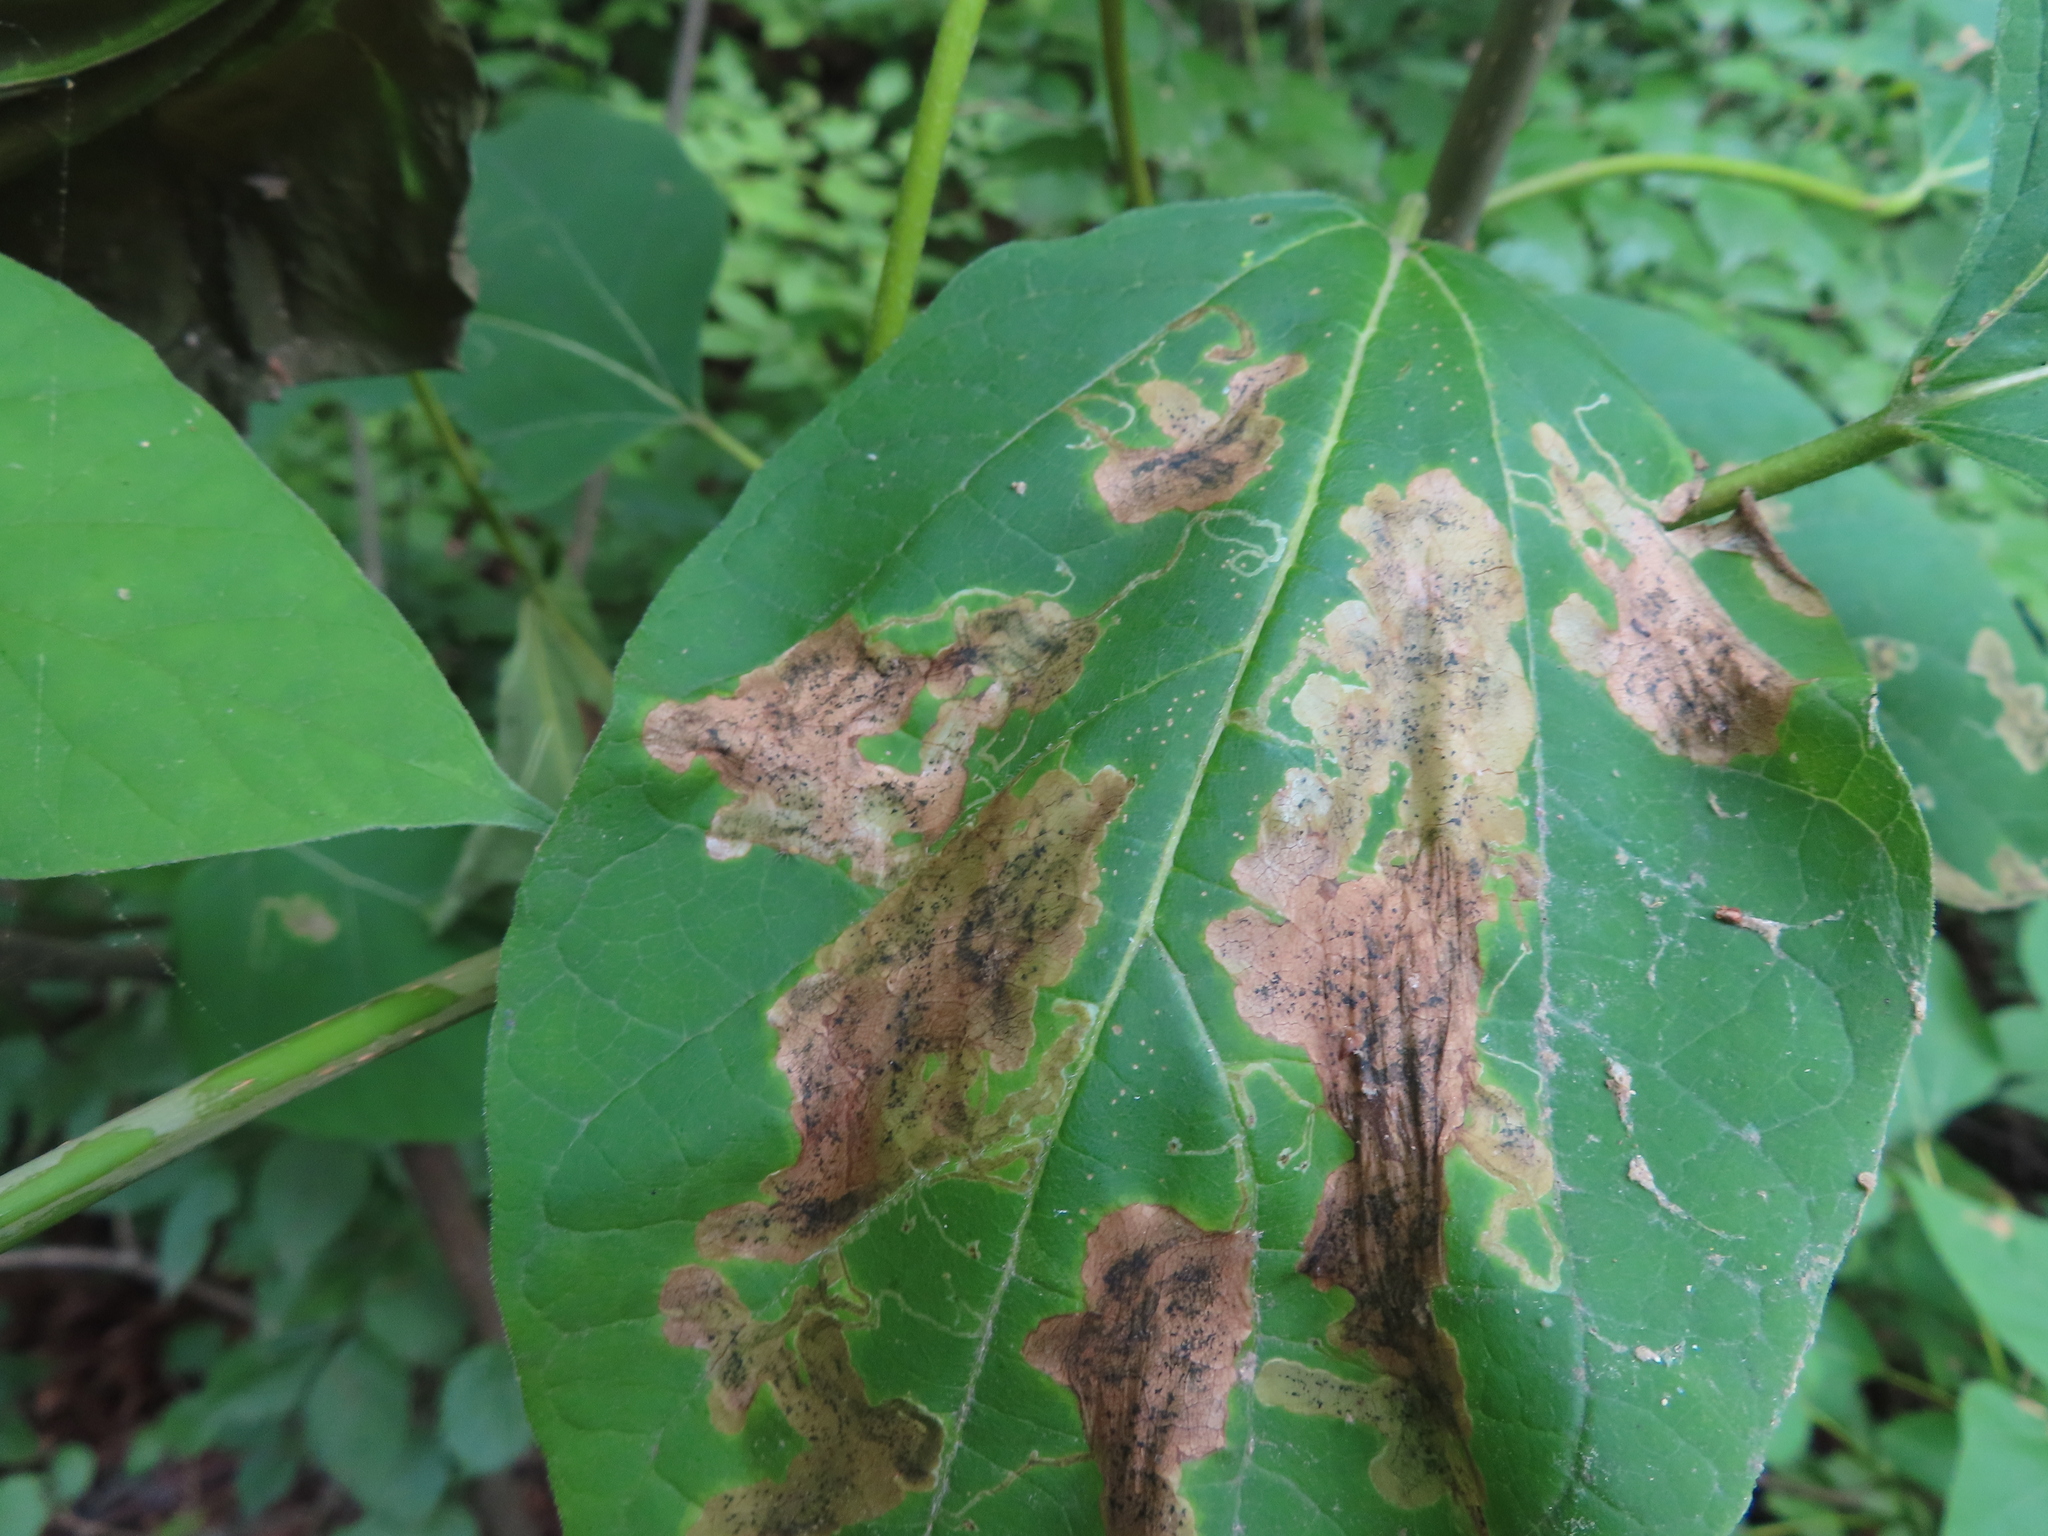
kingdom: Animalia
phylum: Arthropoda
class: Insecta
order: Diptera
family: Agromyzidae
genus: Amauromyza
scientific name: Amauromyza pleuralis
